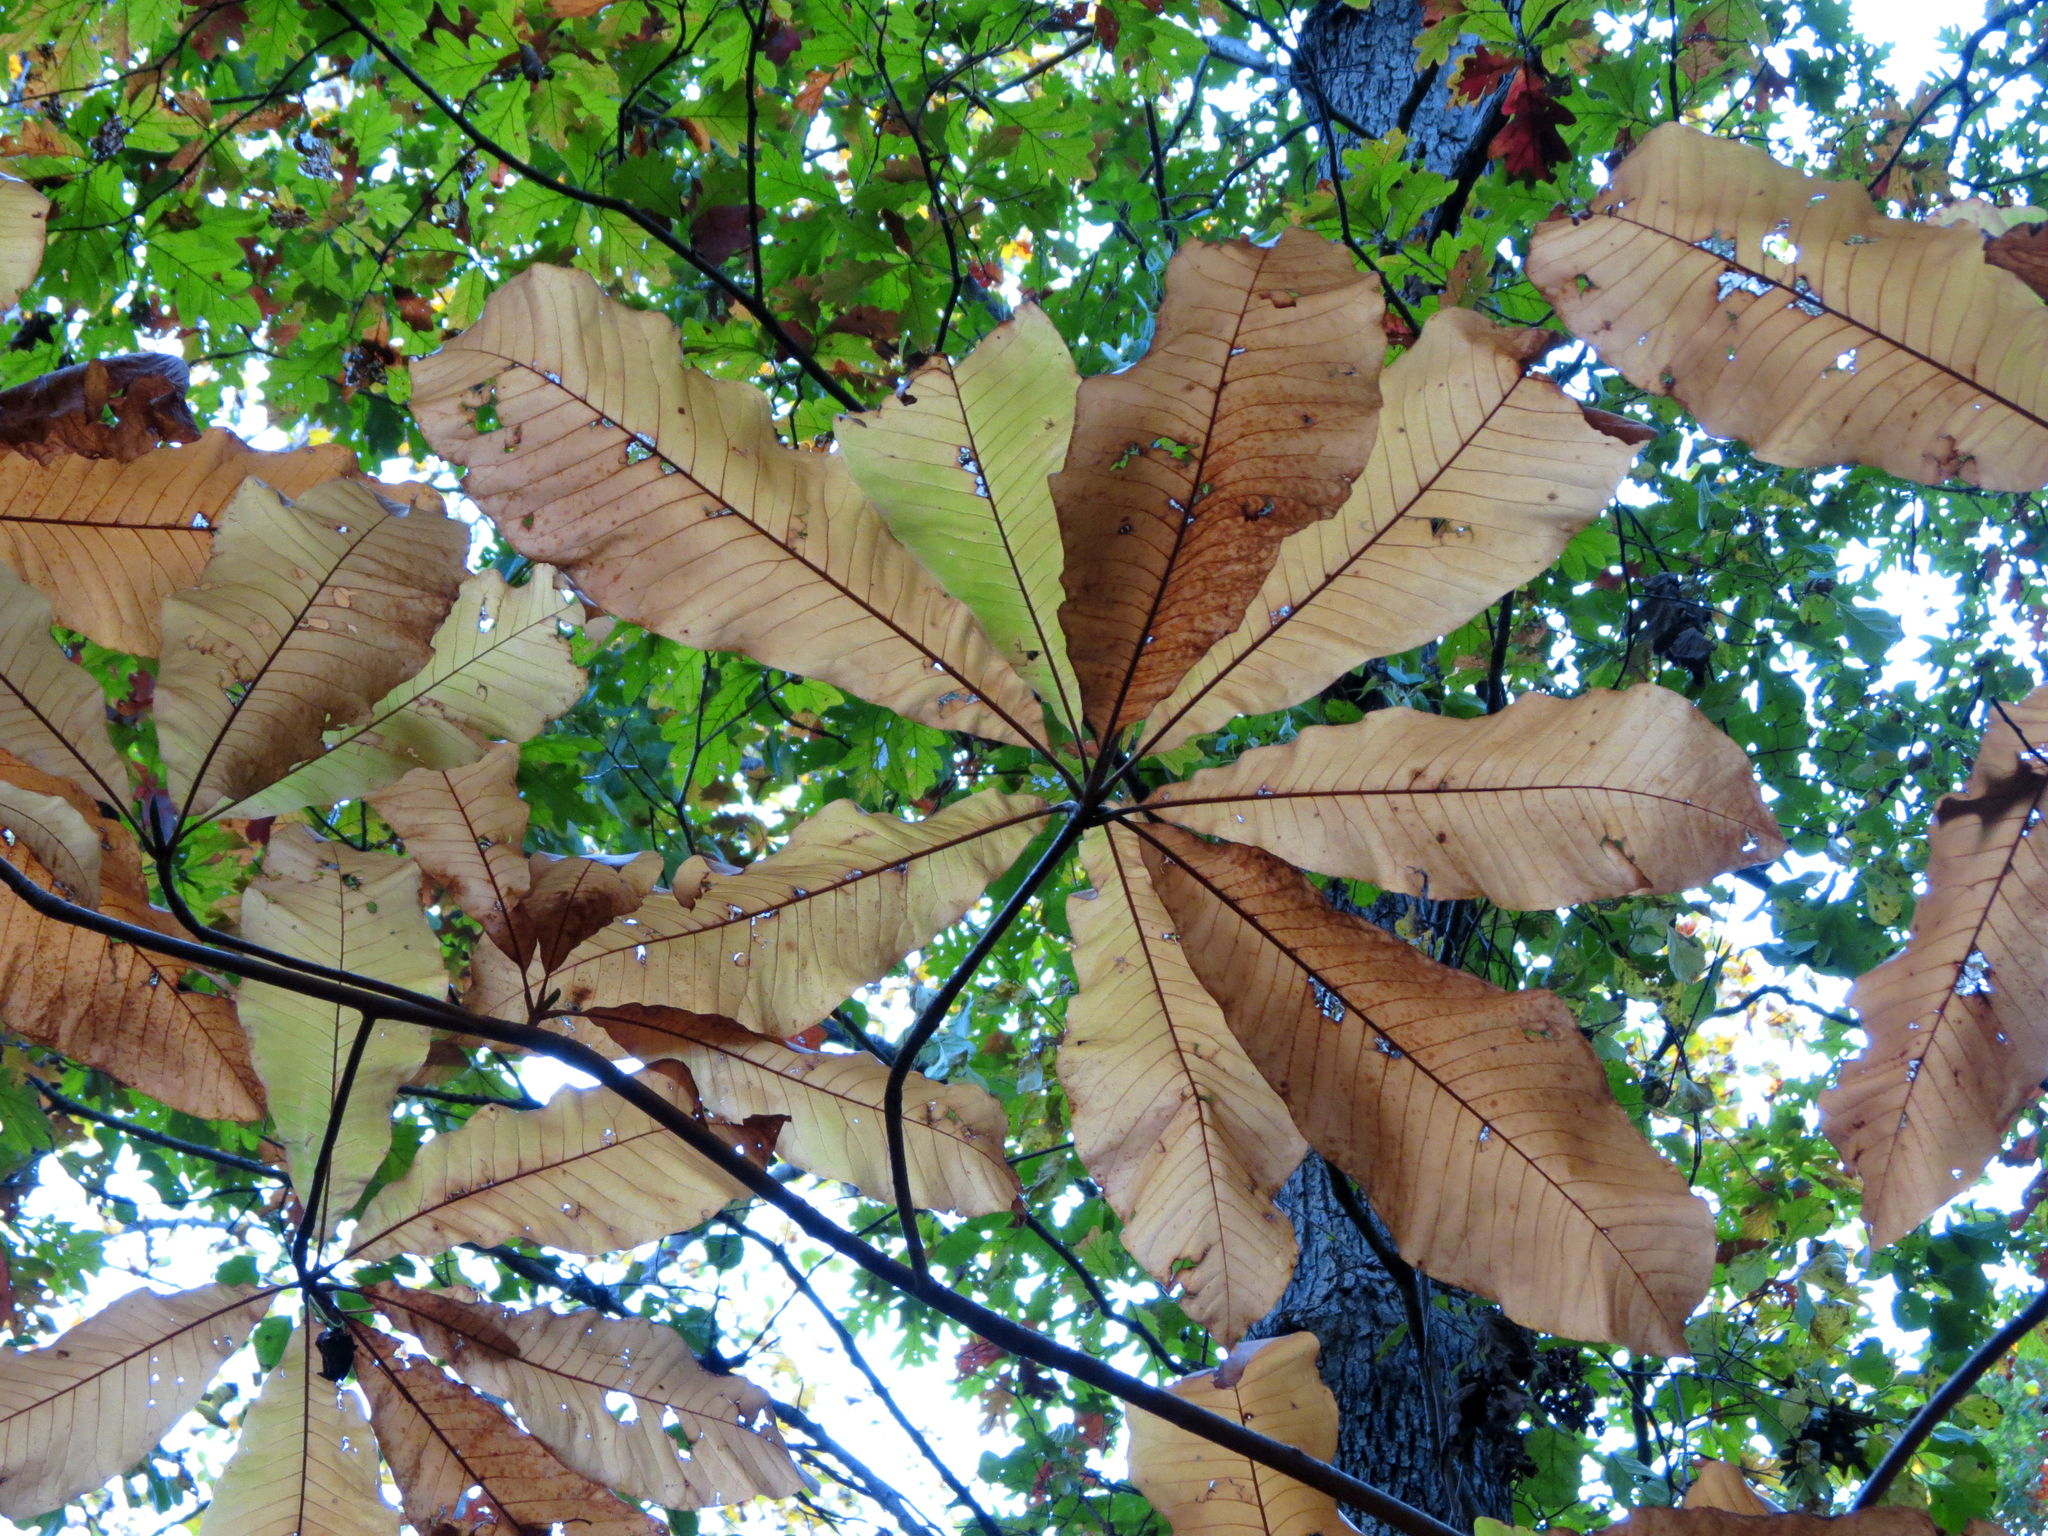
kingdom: Plantae
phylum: Tracheophyta
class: Magnoliopsida
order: Magnoliales
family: Magnoliaceae
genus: Magnolia
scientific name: Magnolia tripetala
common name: Umbrella magnolia
